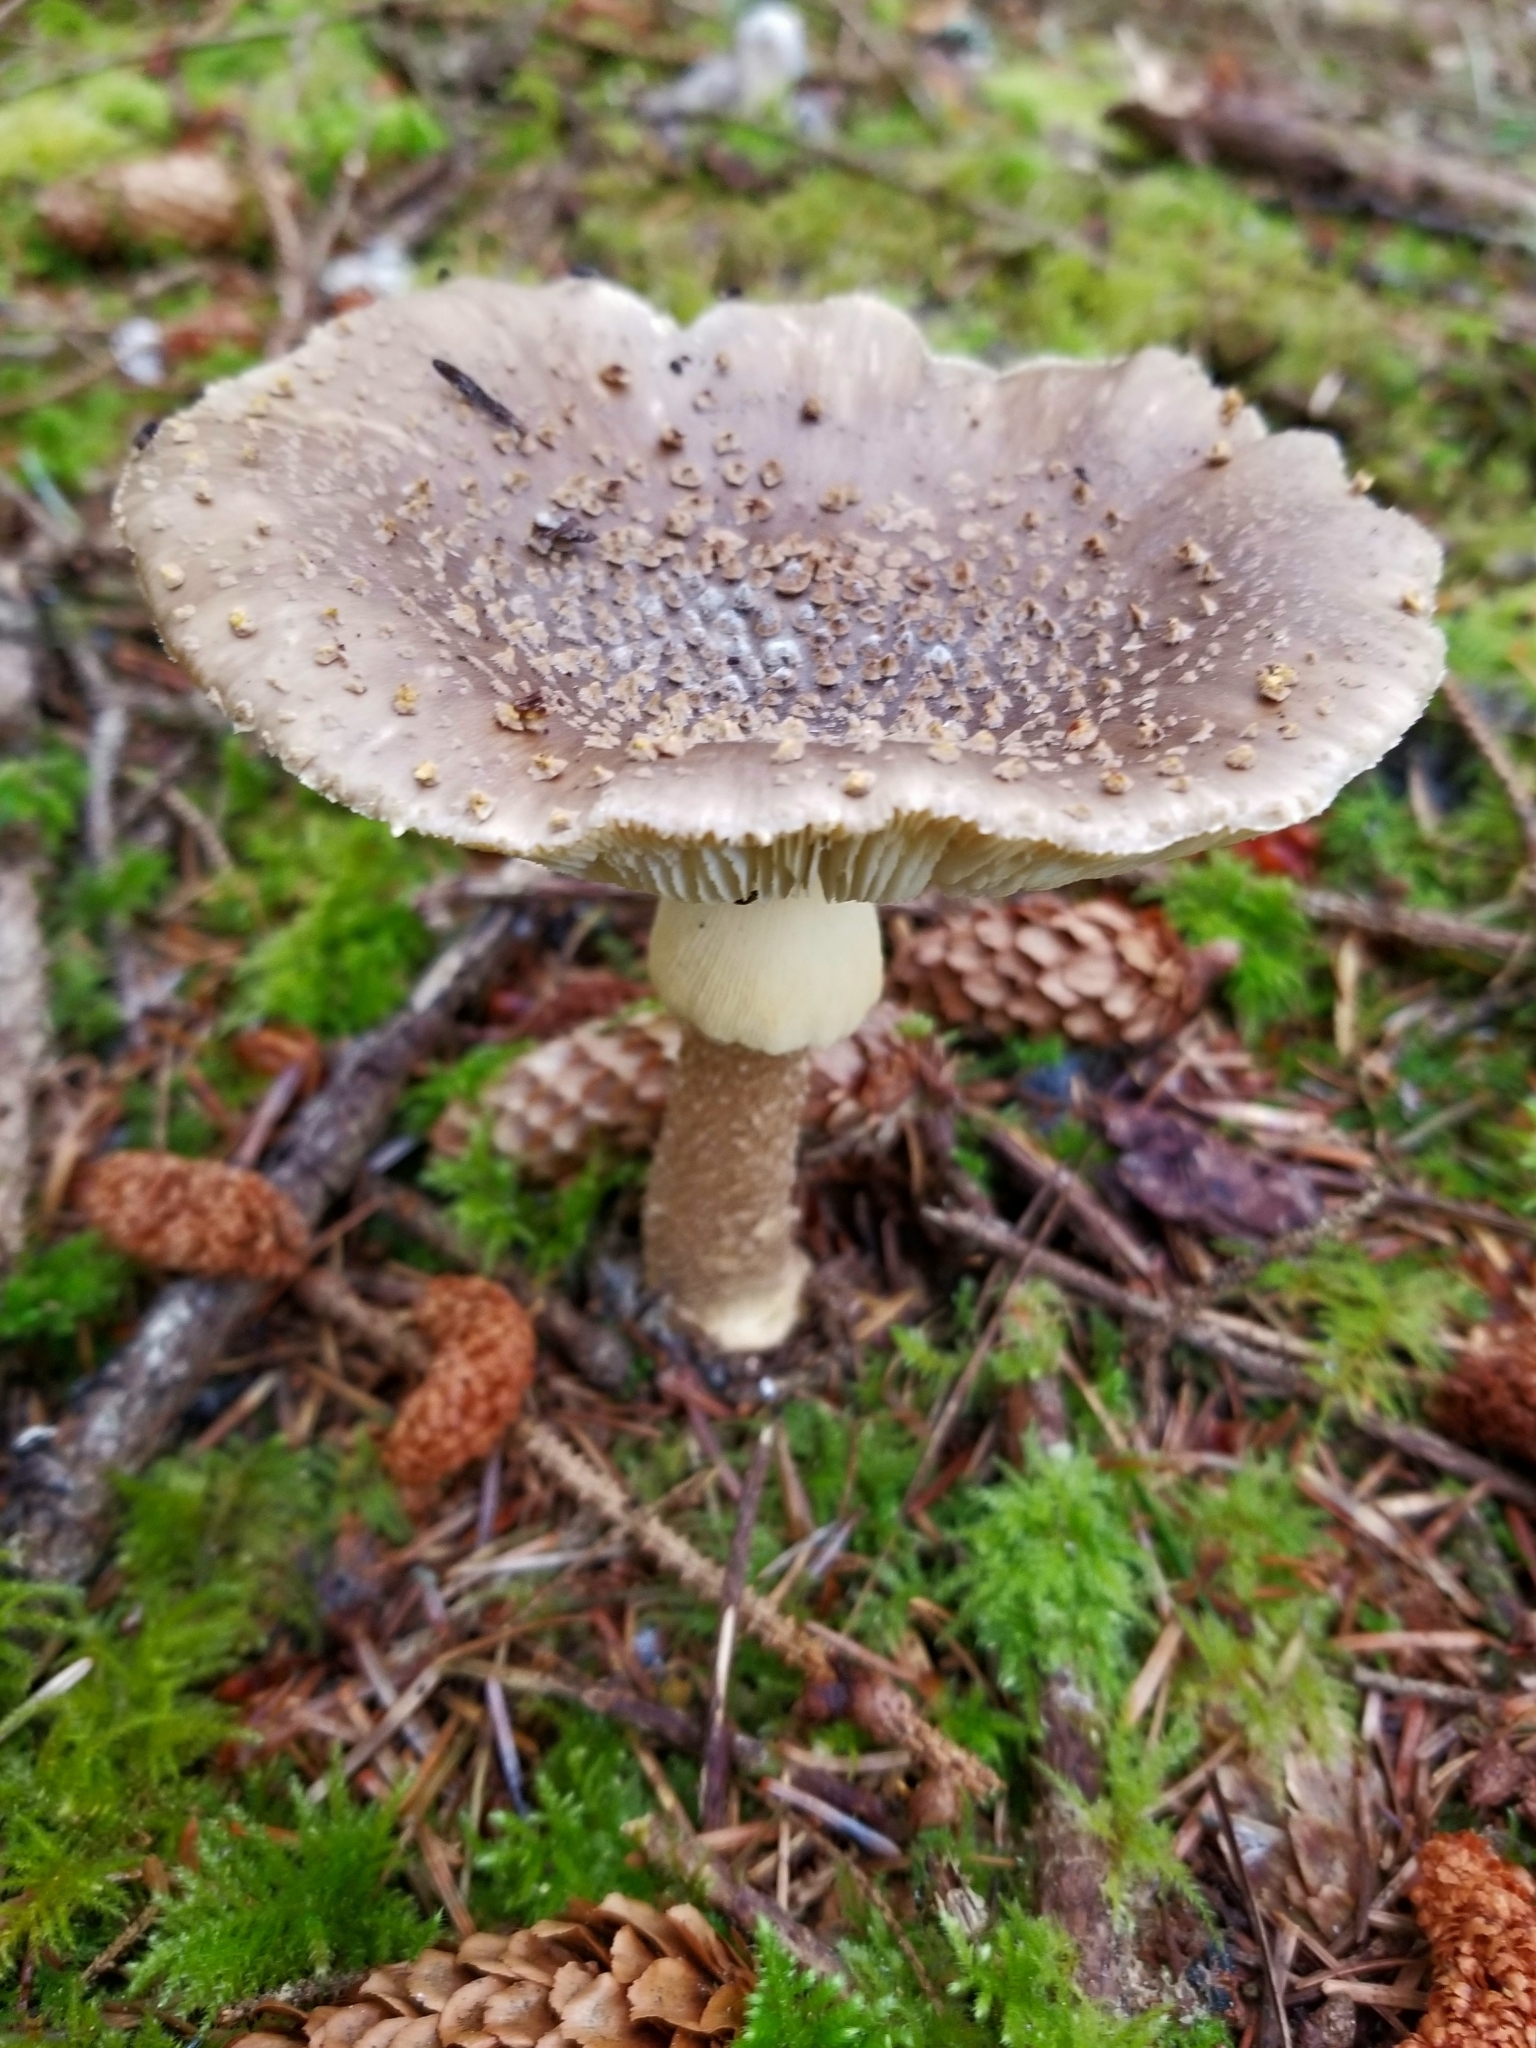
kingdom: Fungi
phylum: Basidiomycota
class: Agaricomycetes
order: Agaricales
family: Amanitaceae
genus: Amanita
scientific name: Amanita augusta
